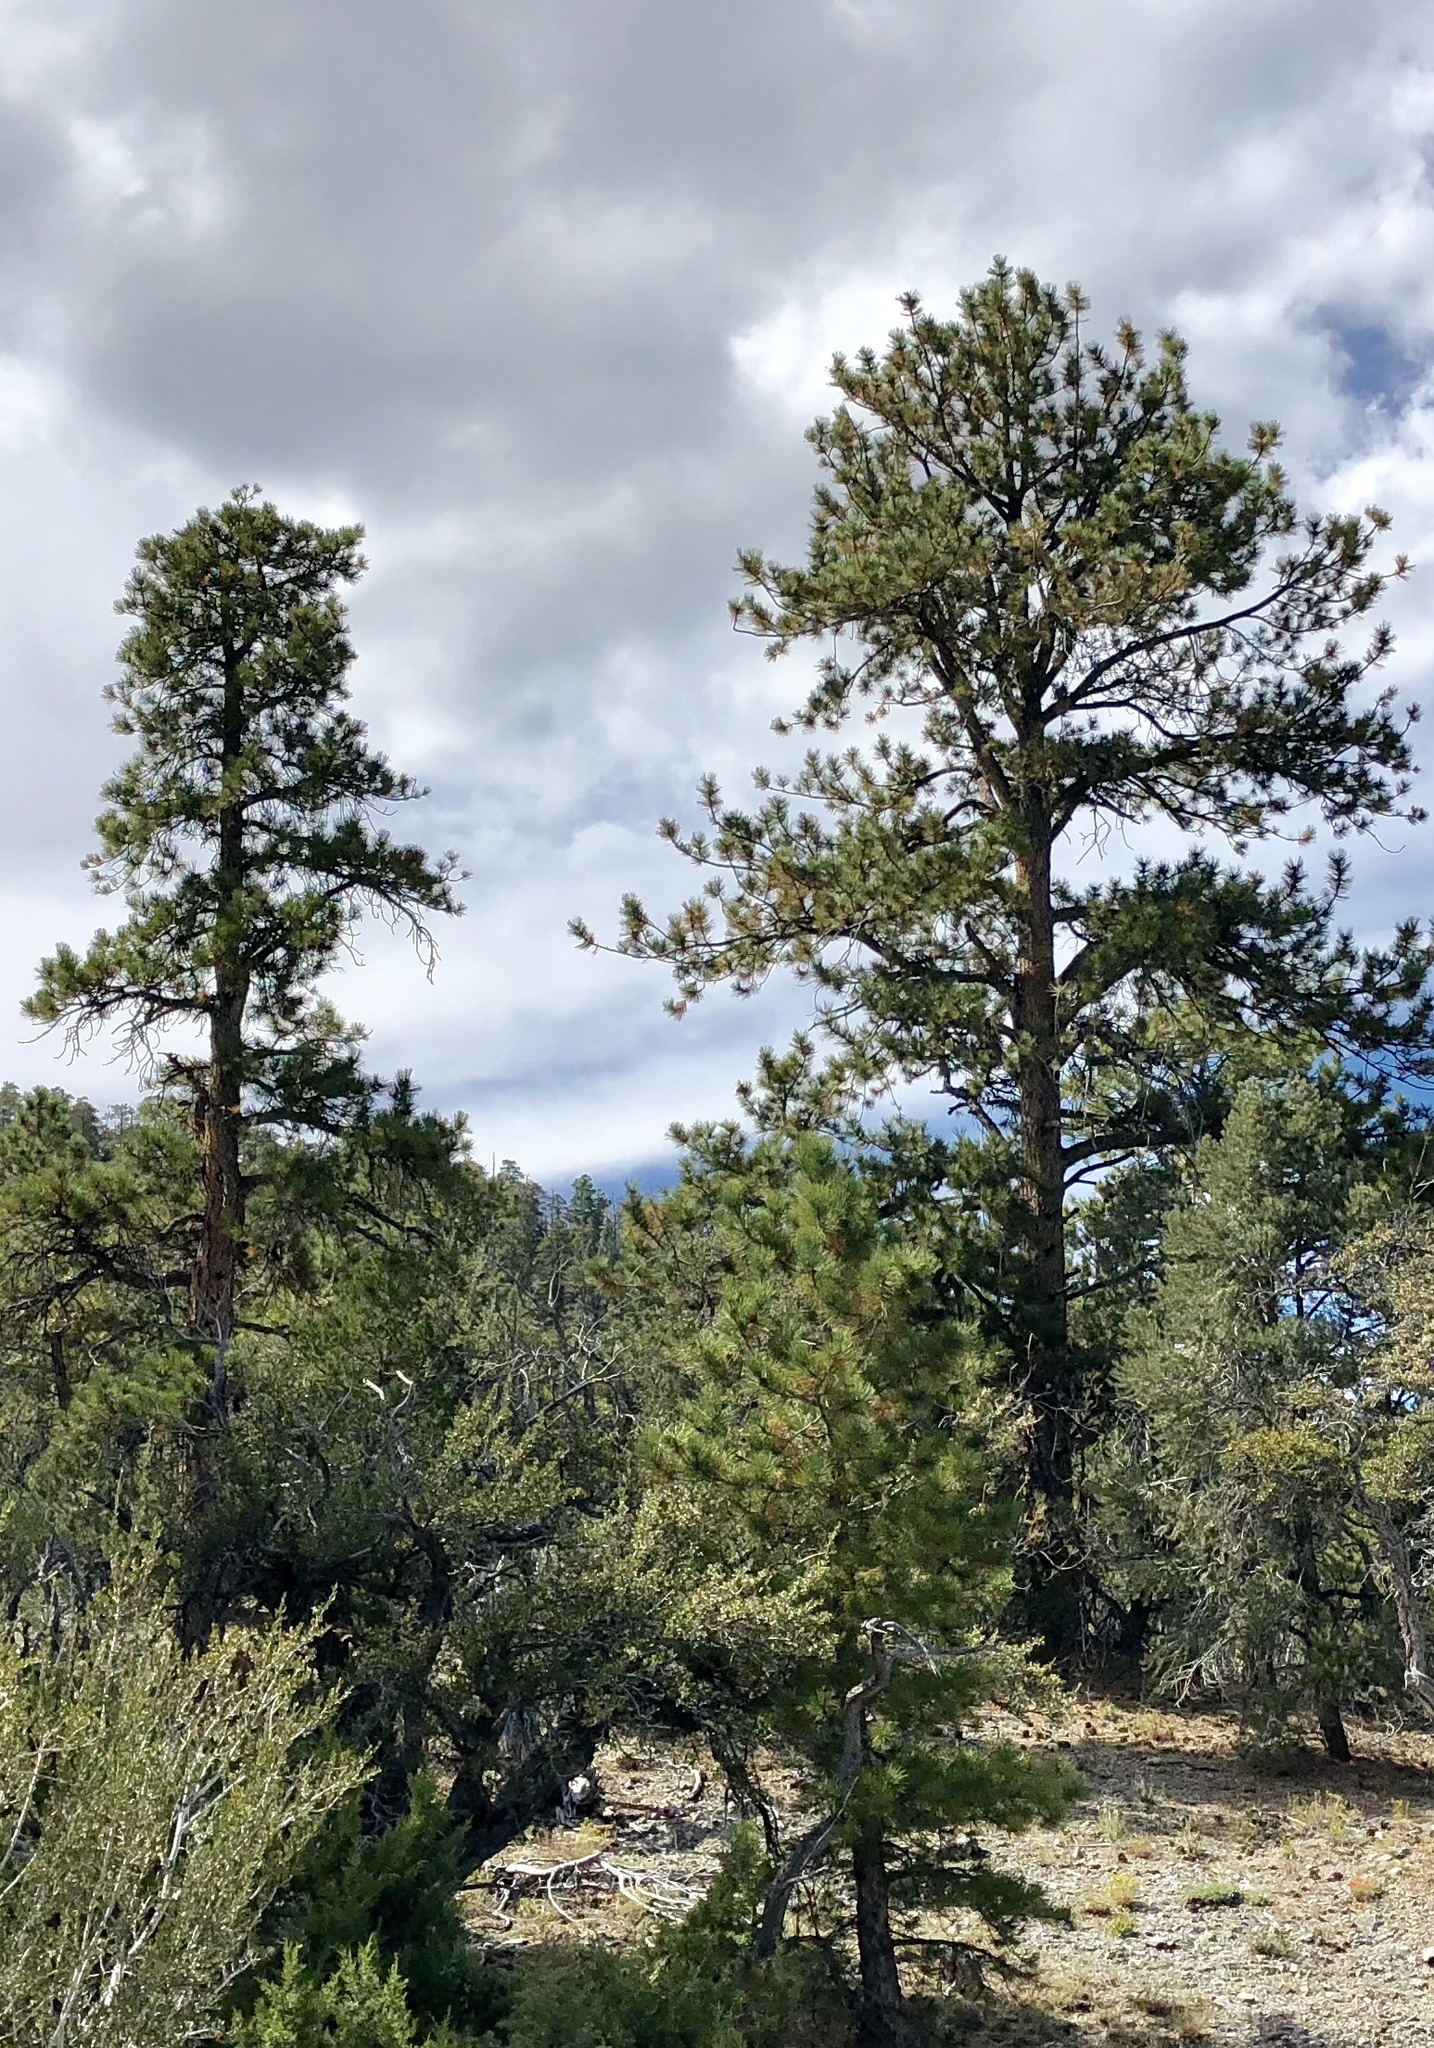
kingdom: Plantae
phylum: Tracheophyta
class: Pinopsida
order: Pinales
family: Pinaceae
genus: Pinus
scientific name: Pinus ponderosa
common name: Western yellow-pine
